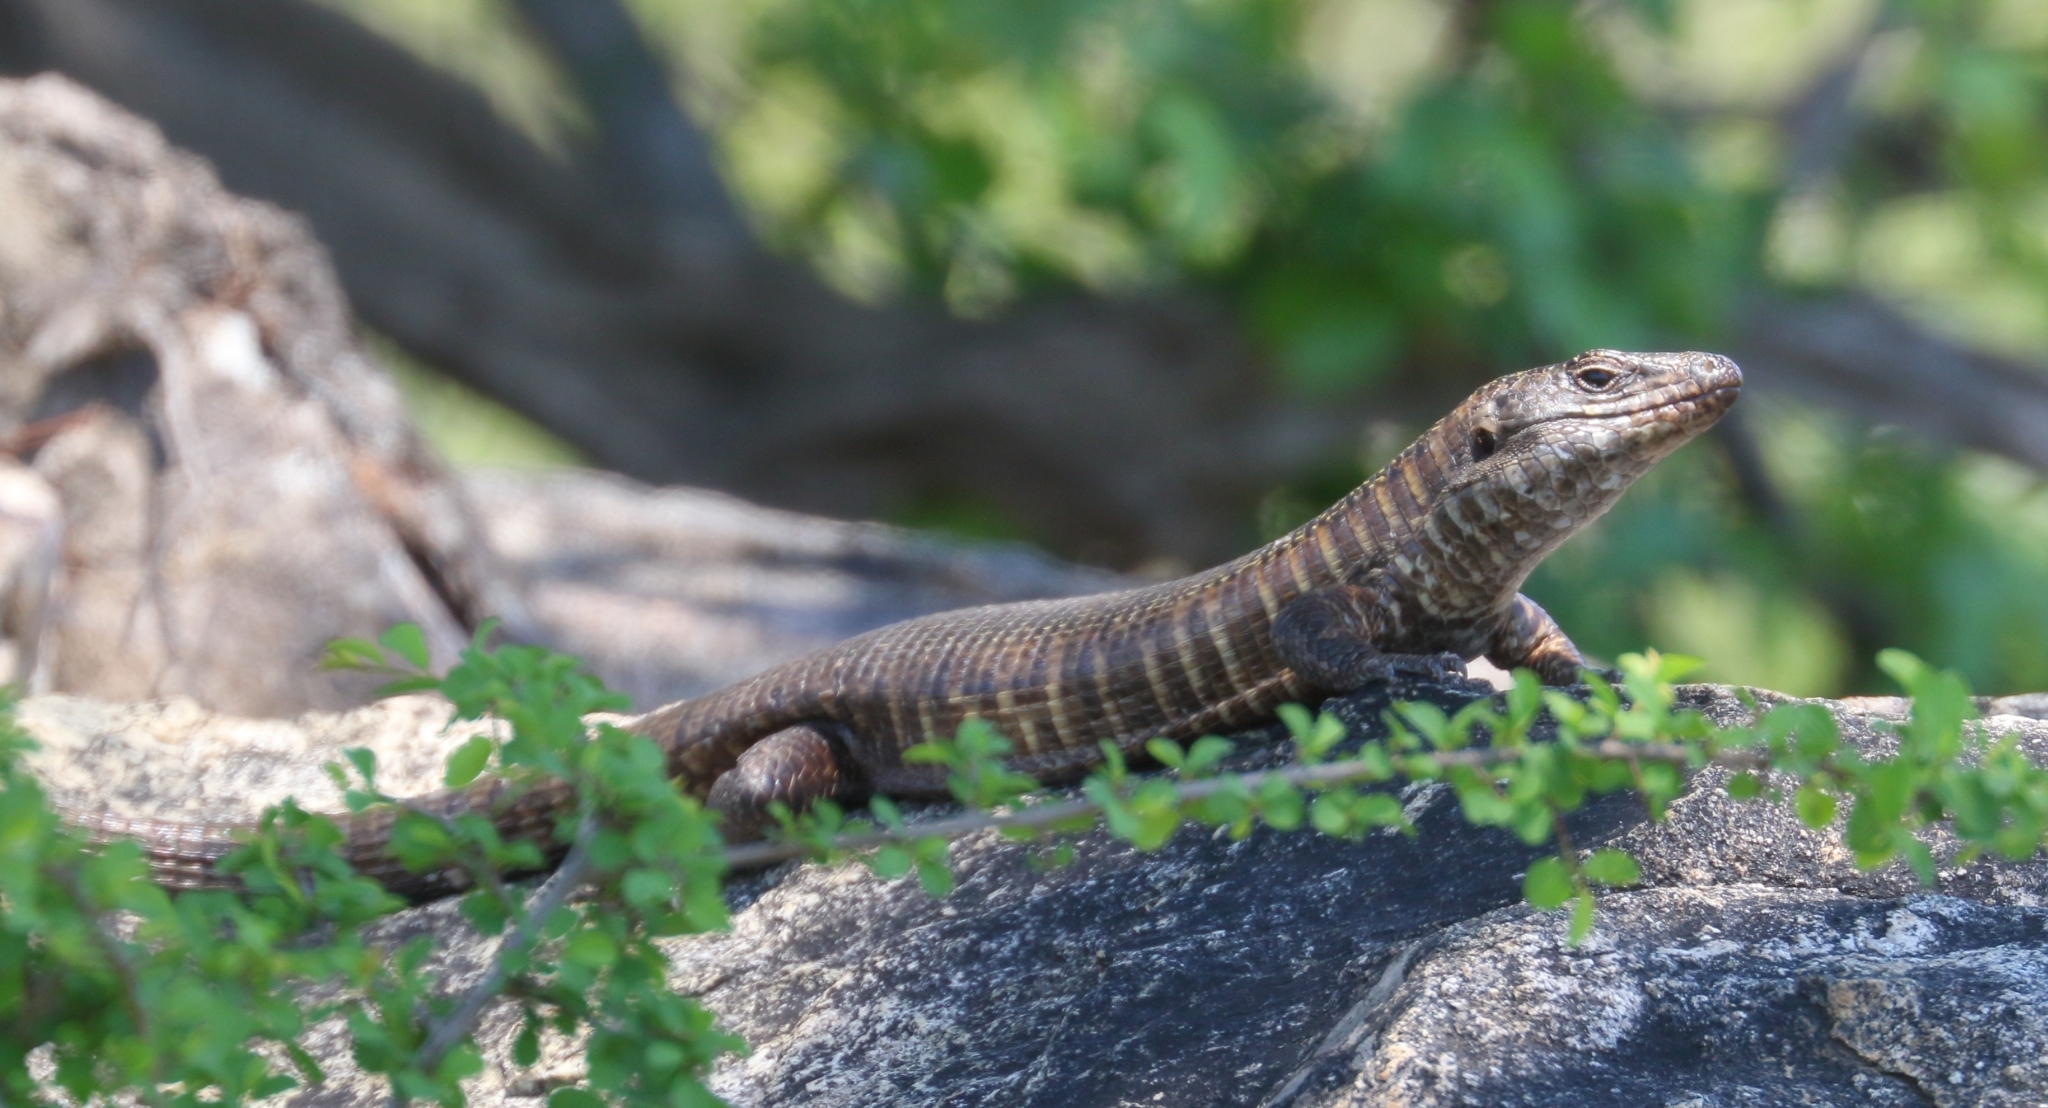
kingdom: Animalia
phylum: Chordata
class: Squamata
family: Gerrhosauridae
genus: Matobosaurus
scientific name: Matobosaurus validus
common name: Common giant plated lizard
